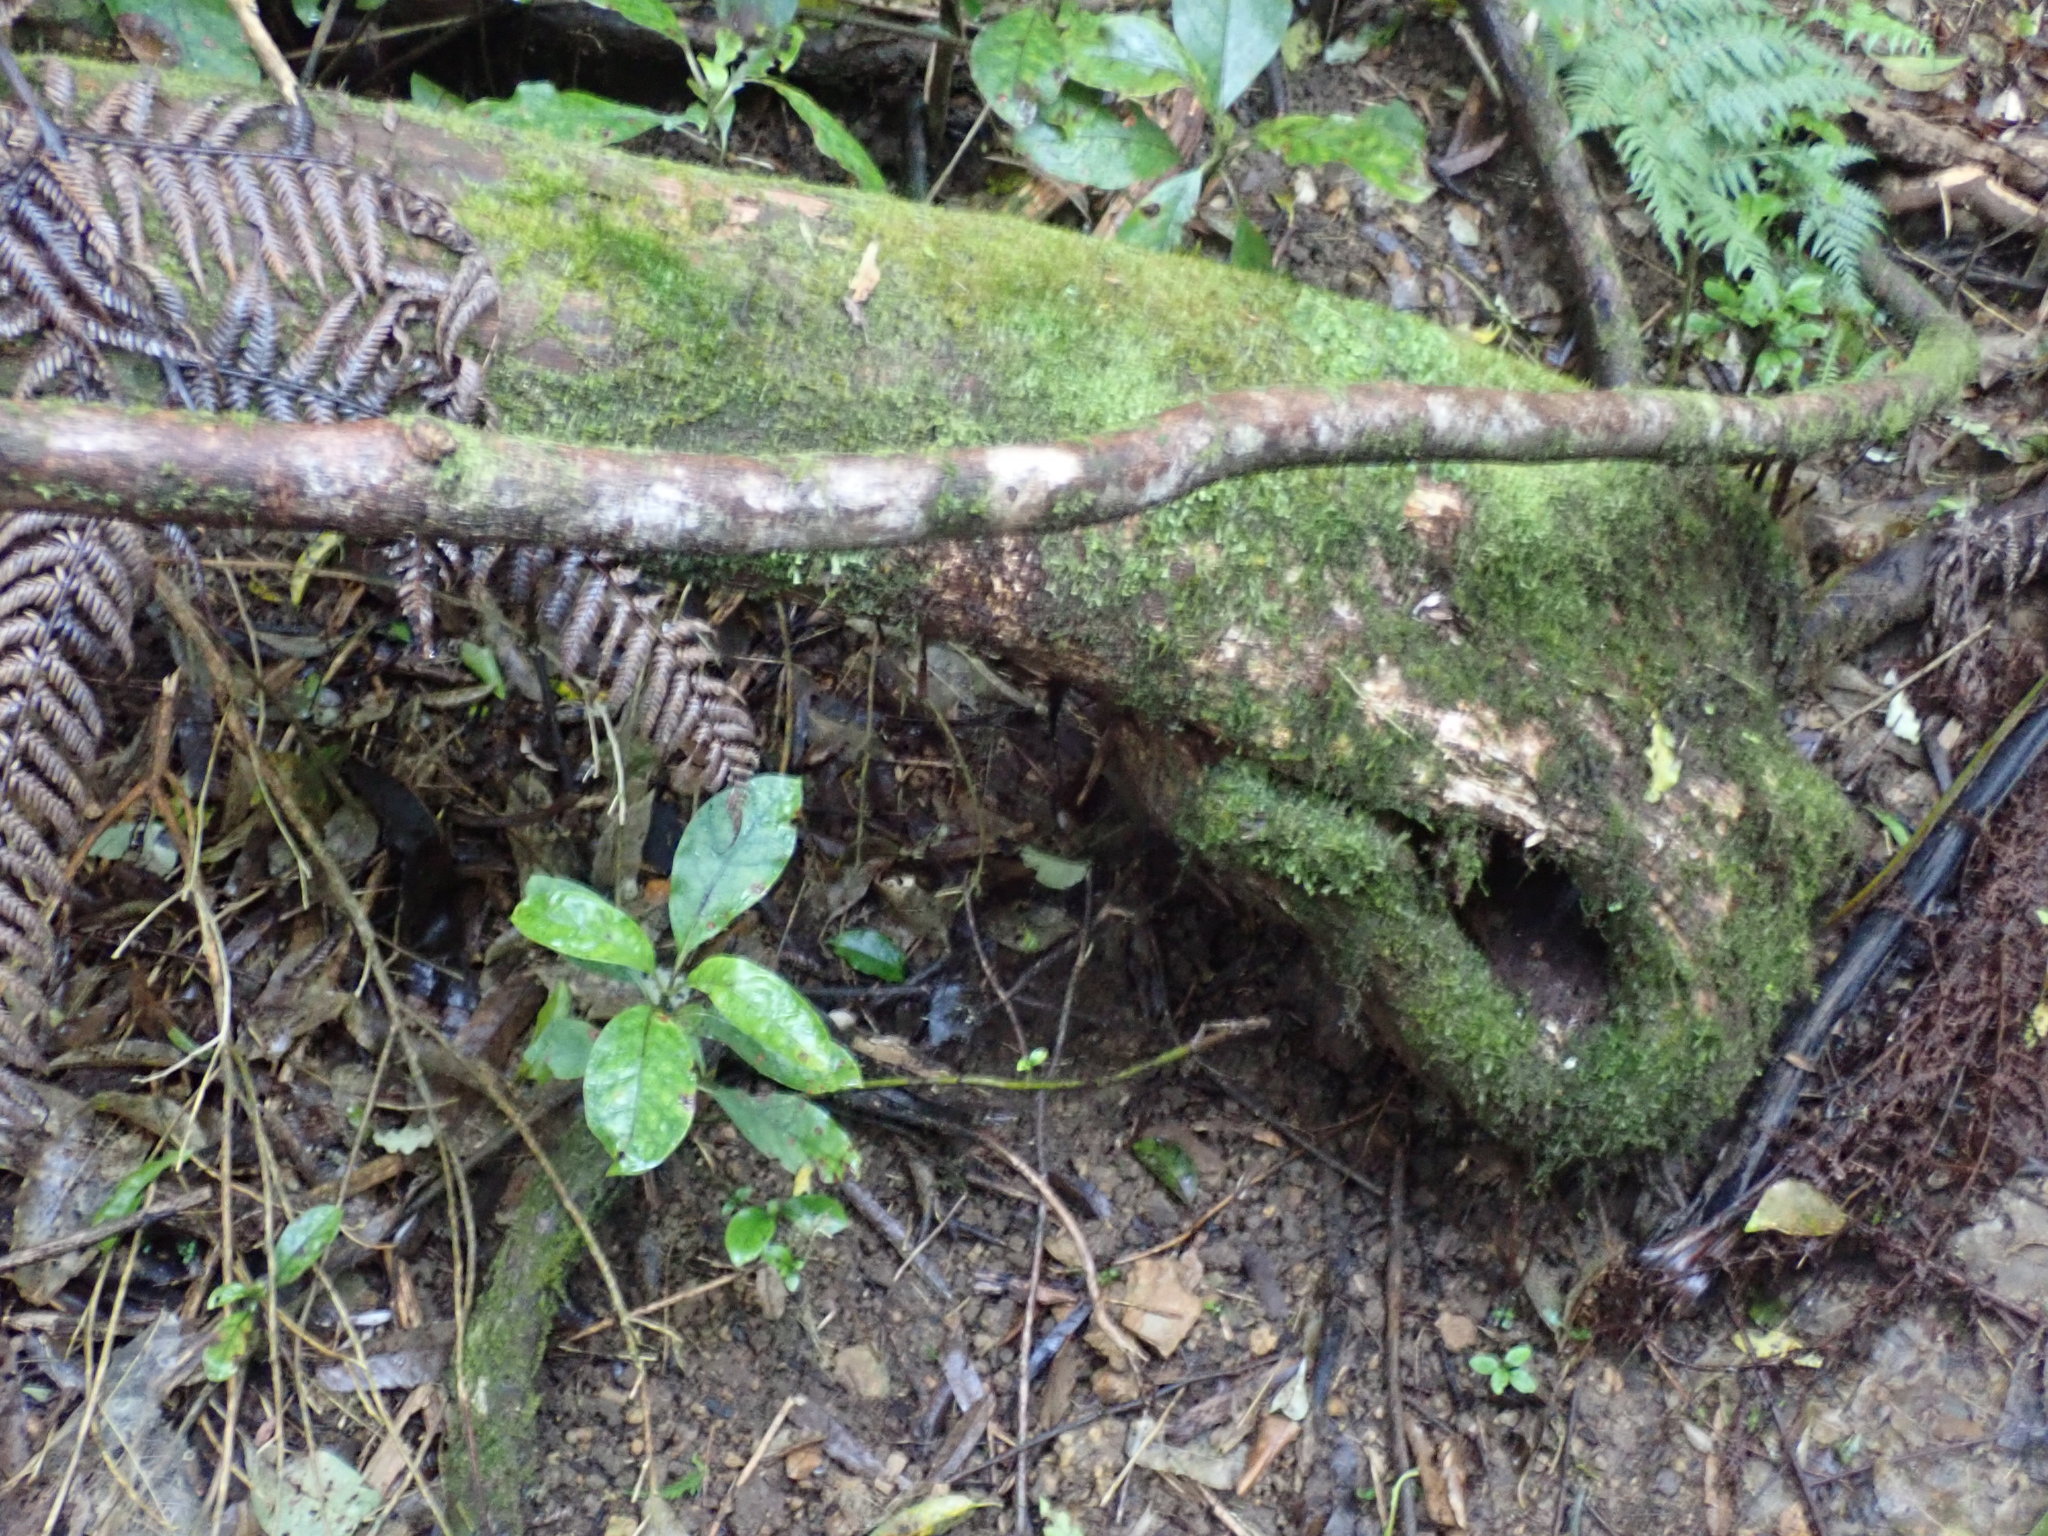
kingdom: Plantae
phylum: Tracheophyta
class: Magnoliopsida
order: Gentianales
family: Rubiaceae
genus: Coprosma
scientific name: Coprosma autumnalis
